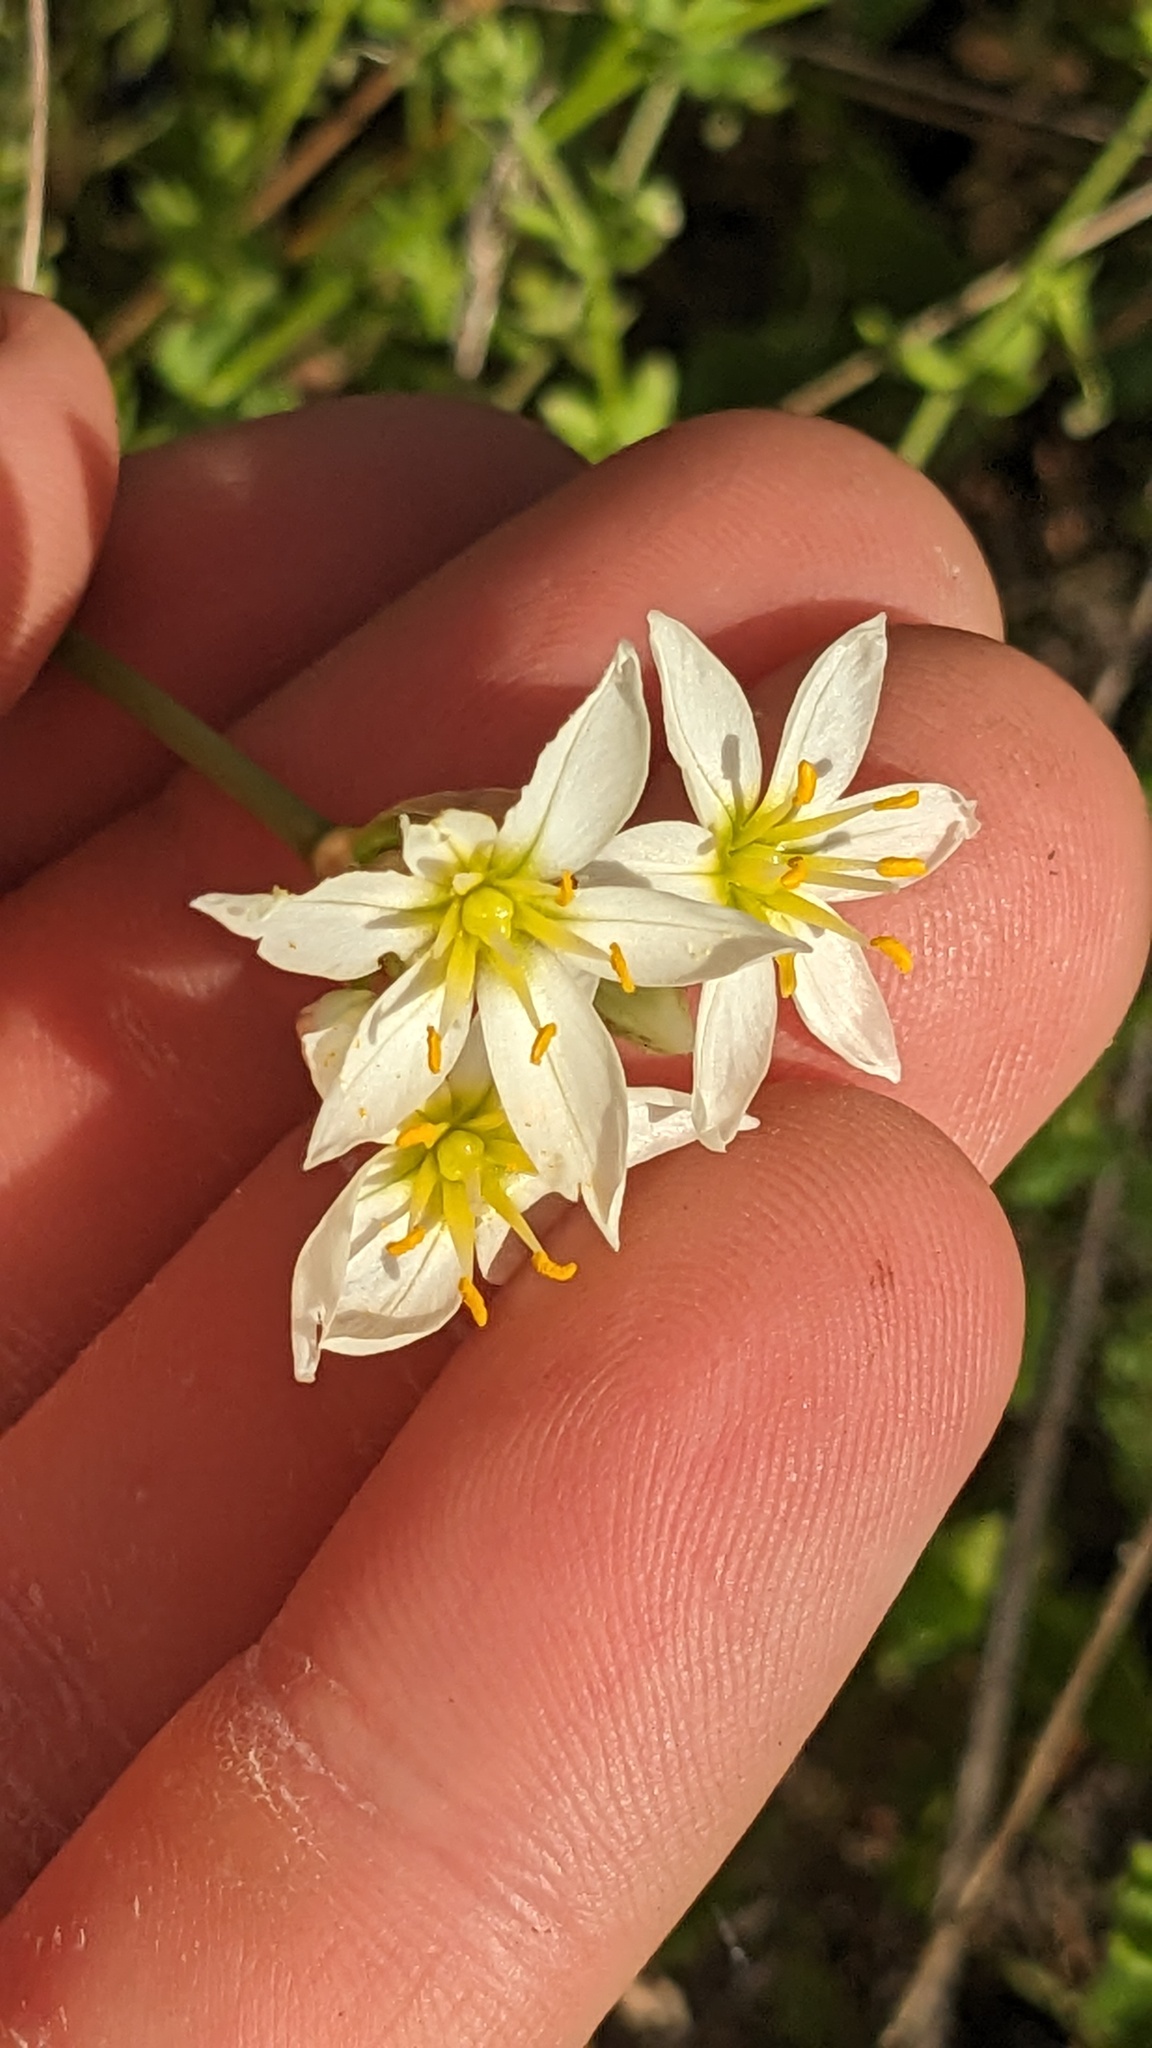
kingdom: Plantae
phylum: Tracheophyta
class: Liliopsida
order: Asparagales
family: Amaryllidaceae
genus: Nothoscordum
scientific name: Nothoscordum bivalve
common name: Crow-poison
